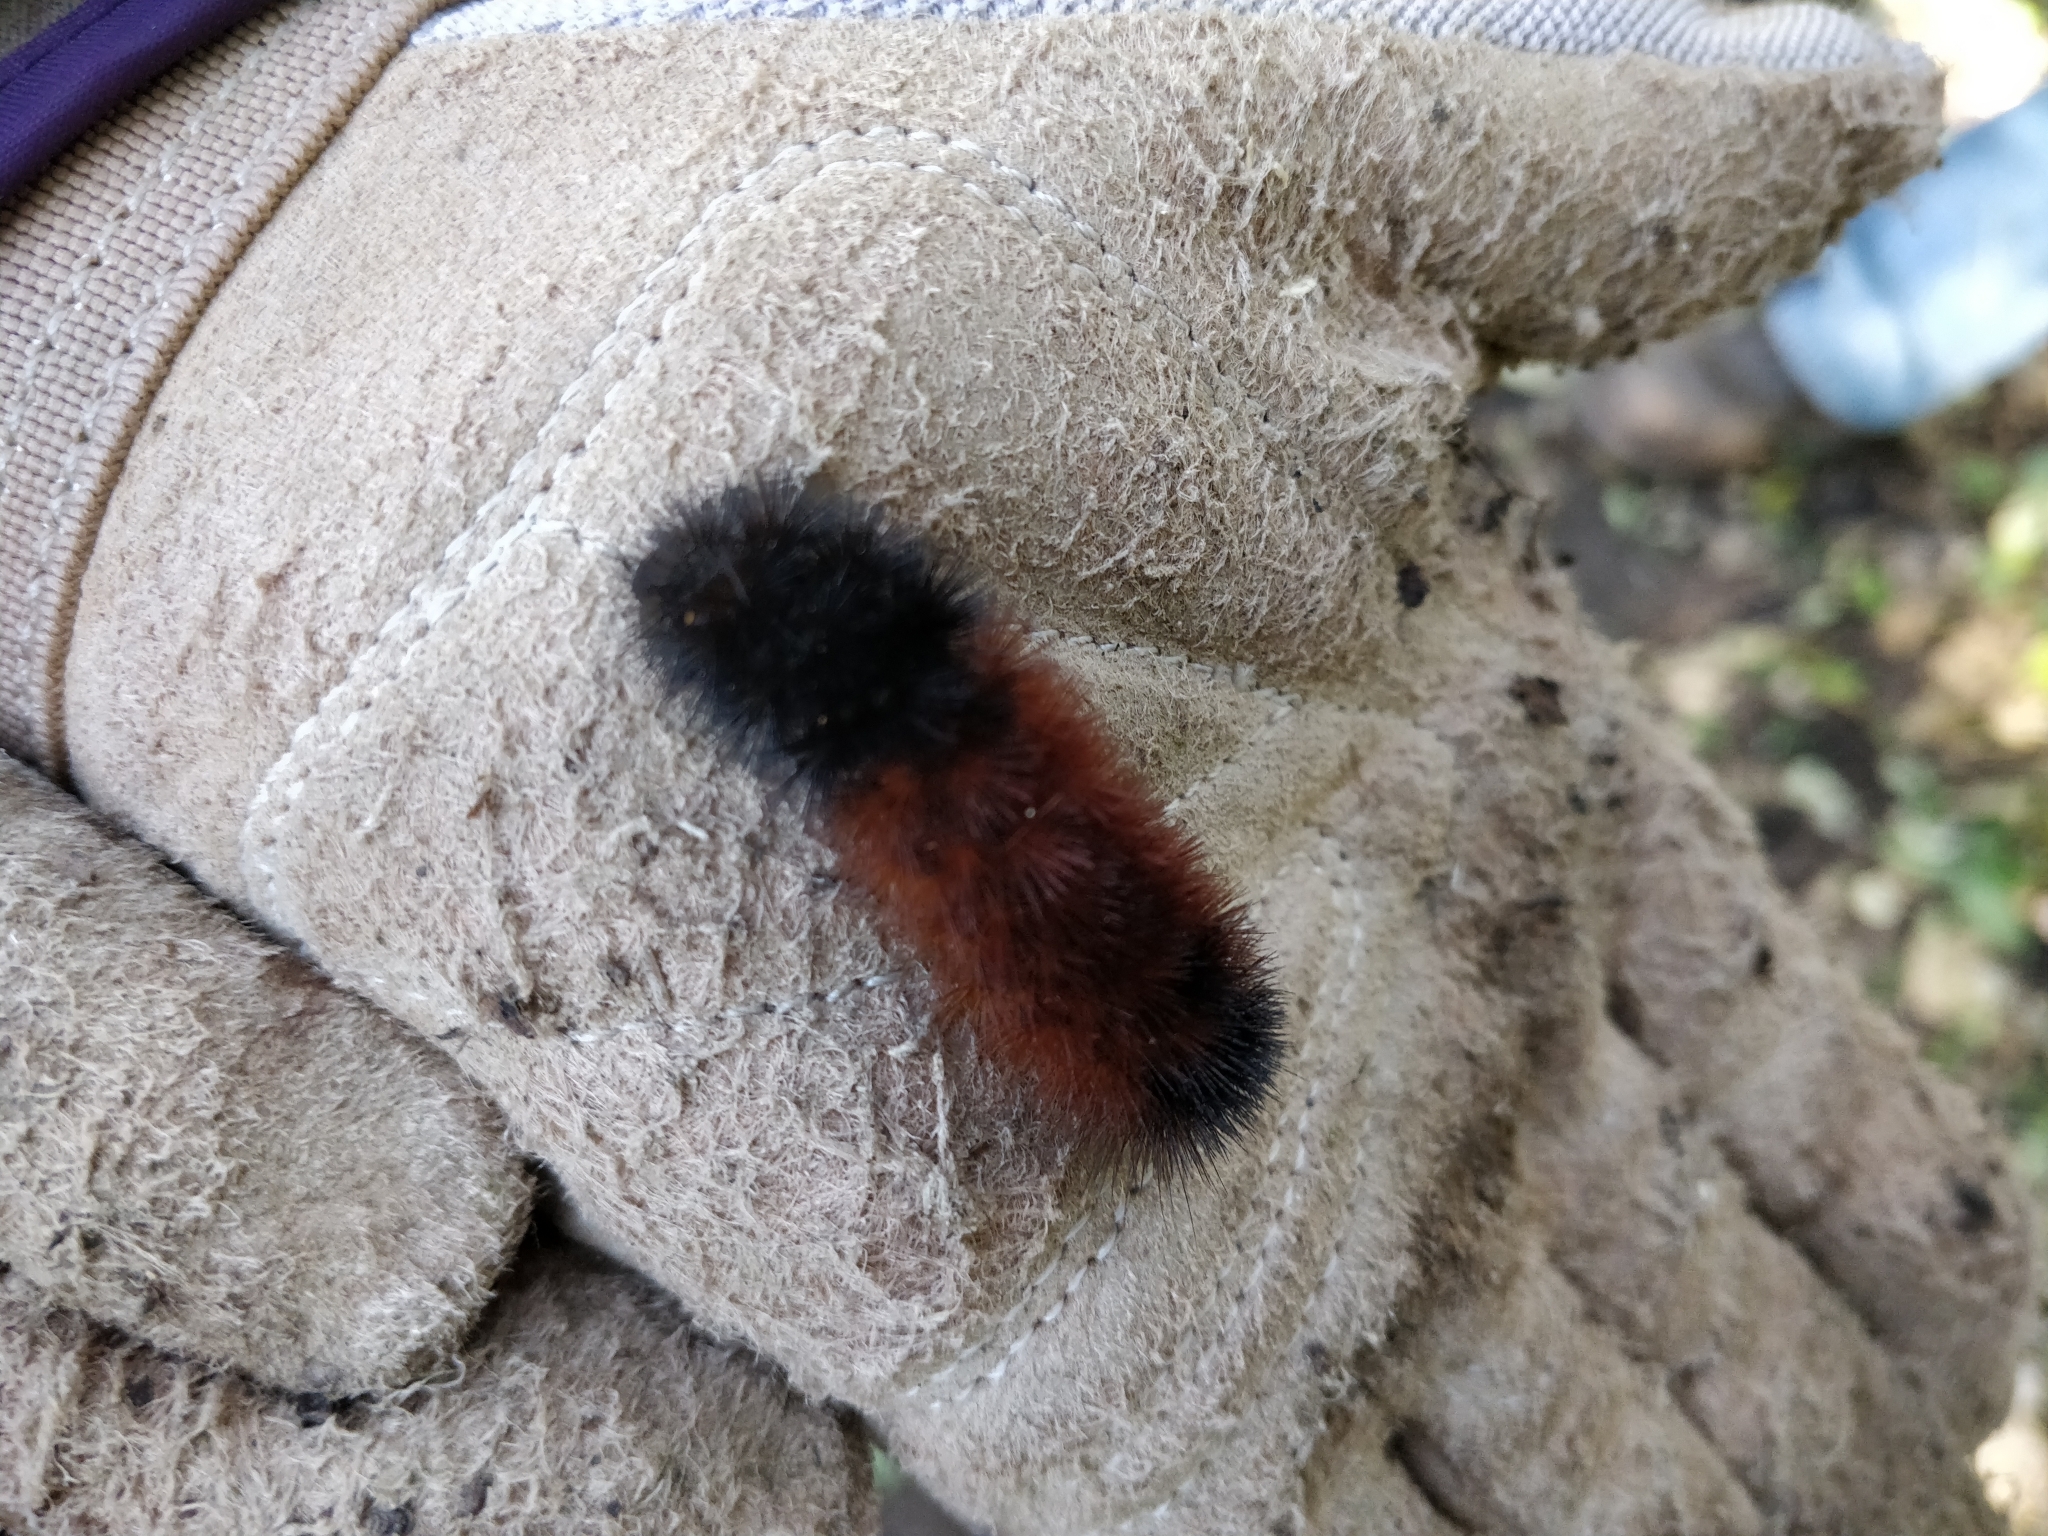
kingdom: Animalia
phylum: Arthropoda
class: Insecta
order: Lepidoptera
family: Erebidae
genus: Pyrrharctia
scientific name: Pyrrharctia isabella
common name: Isabella tiger moth
